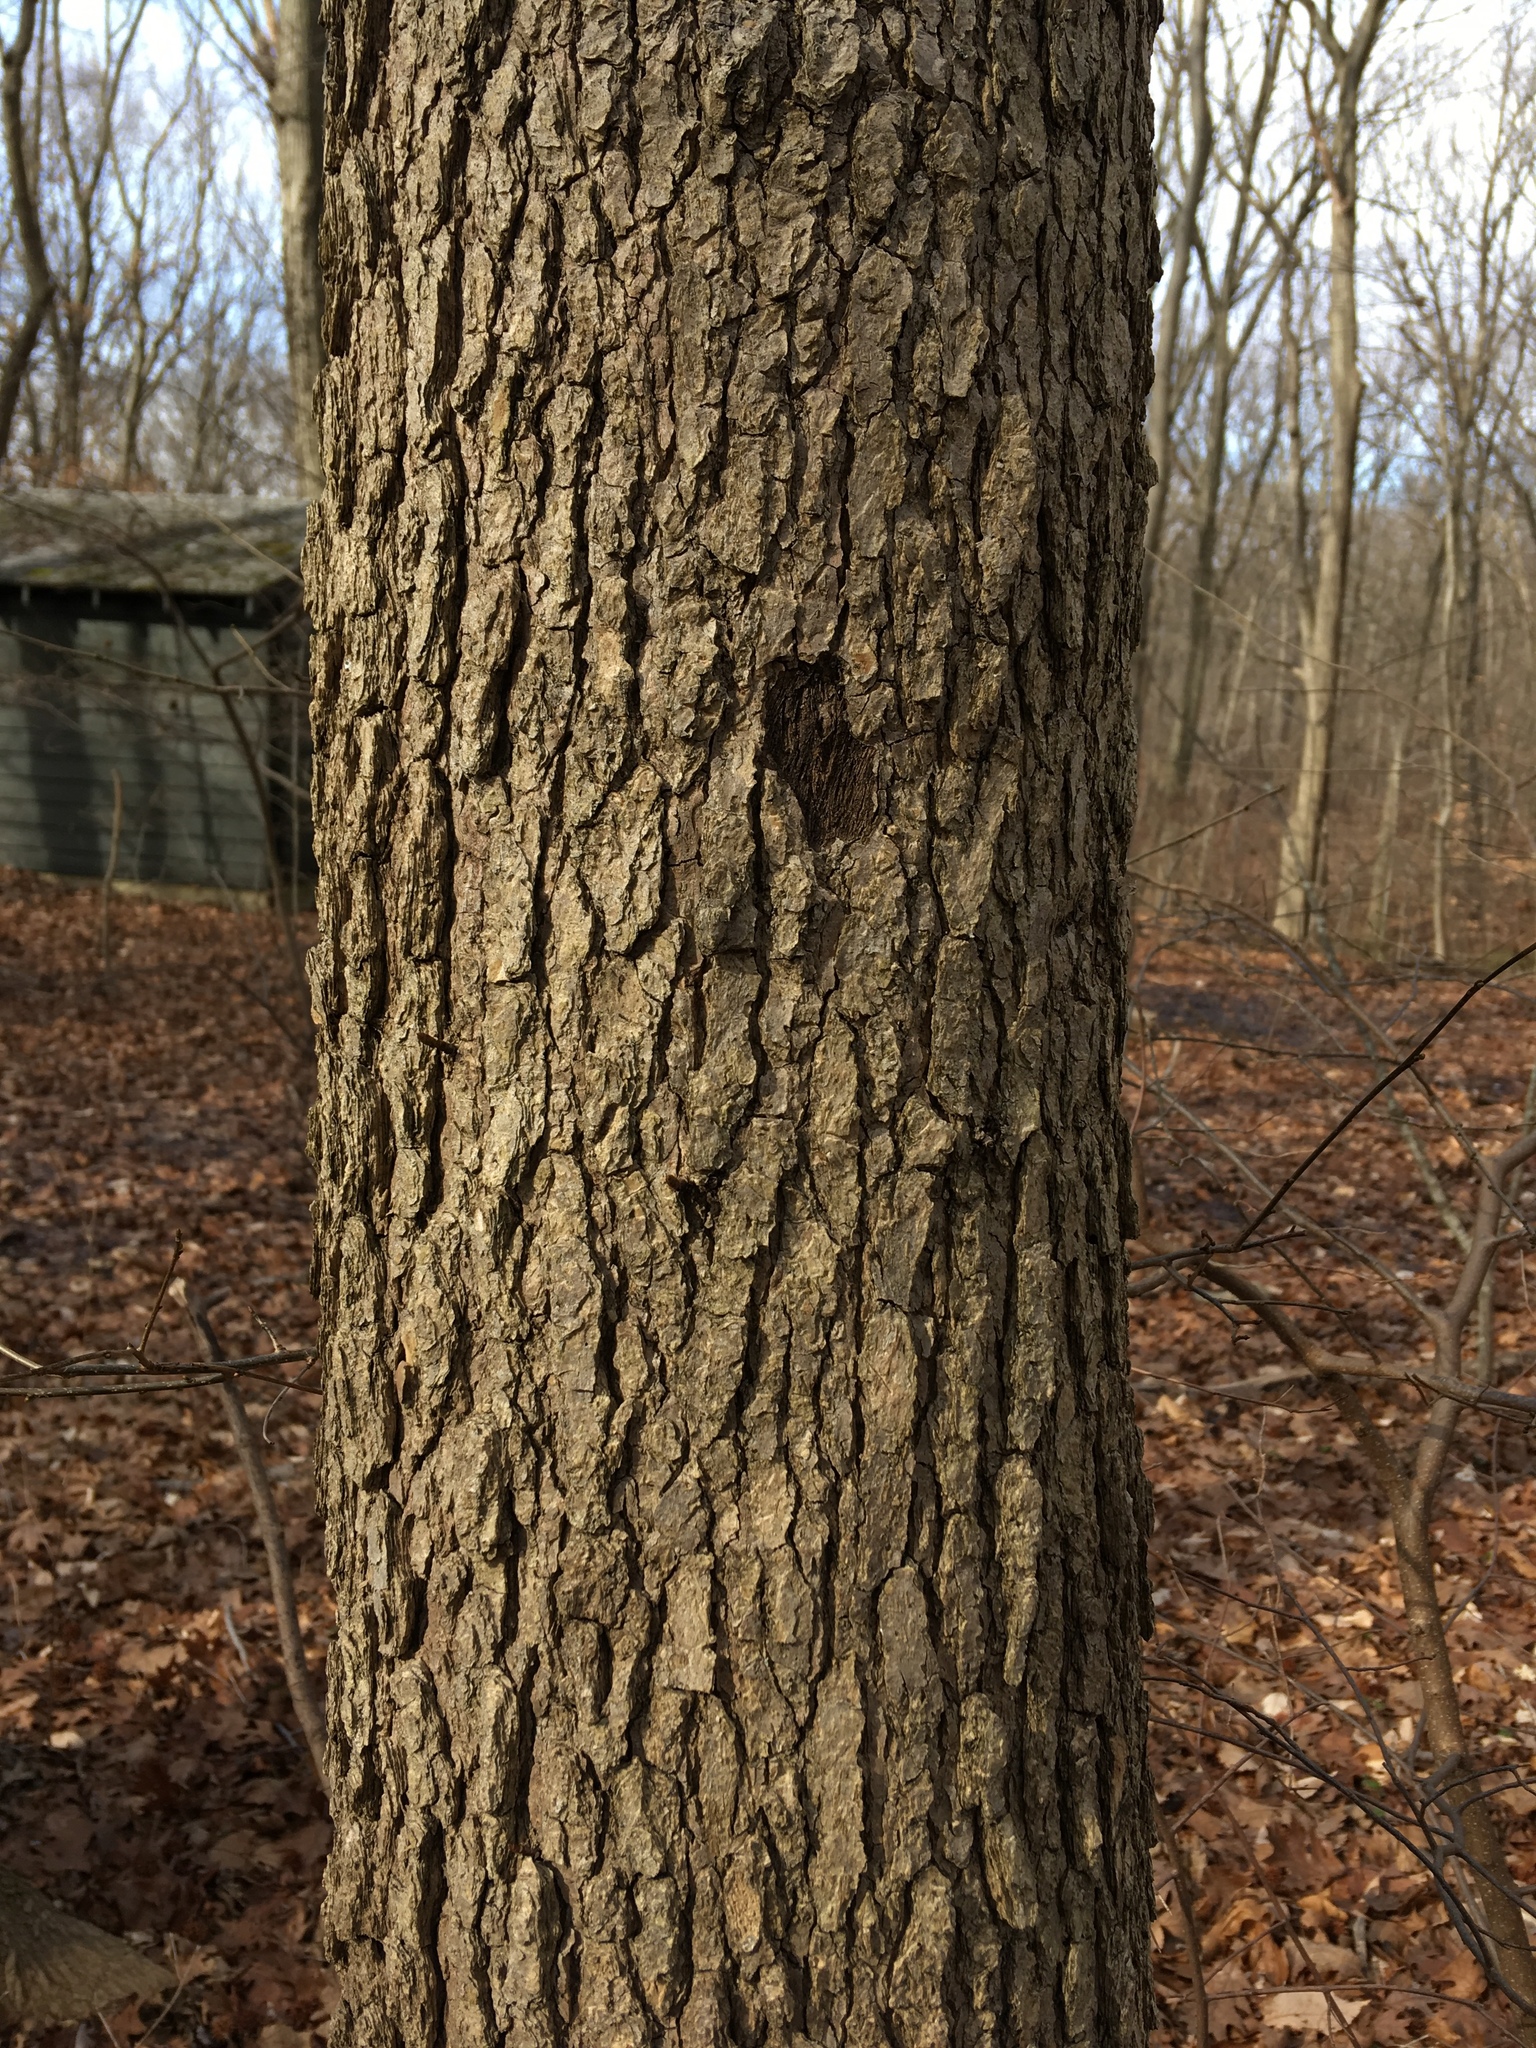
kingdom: Plantae
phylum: Tracheophyta
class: Magnoliopsida
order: Cornales
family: Nyssaceae
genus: Nyssa
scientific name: Nyssa sylvatica
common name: Black tupelo
